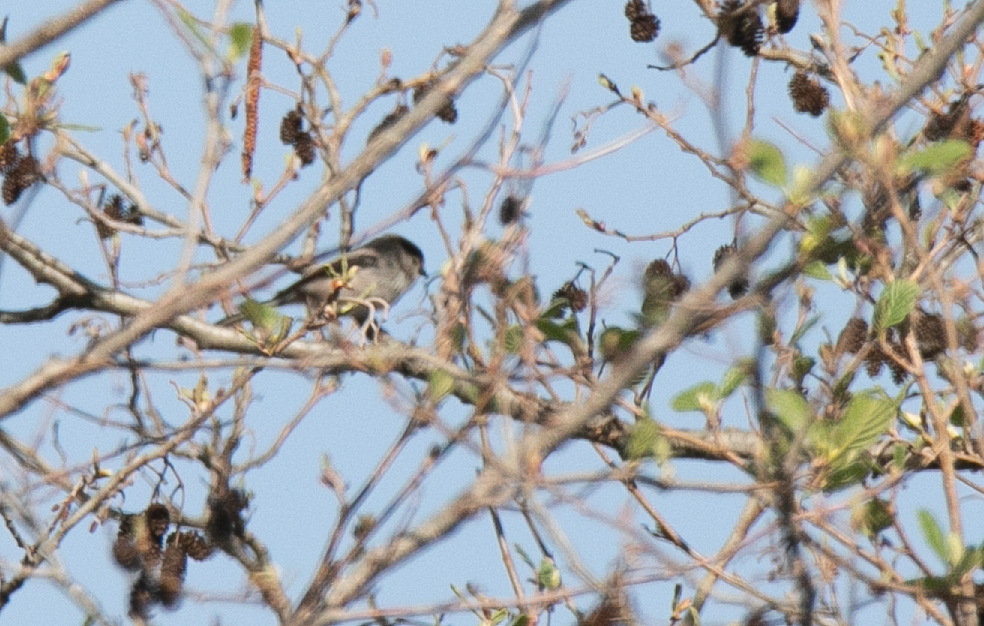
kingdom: Animalia
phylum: Chordata
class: Aves
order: Passeriformes
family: Aegithalidae
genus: Aegithalos
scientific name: Aegithalos caudatus
